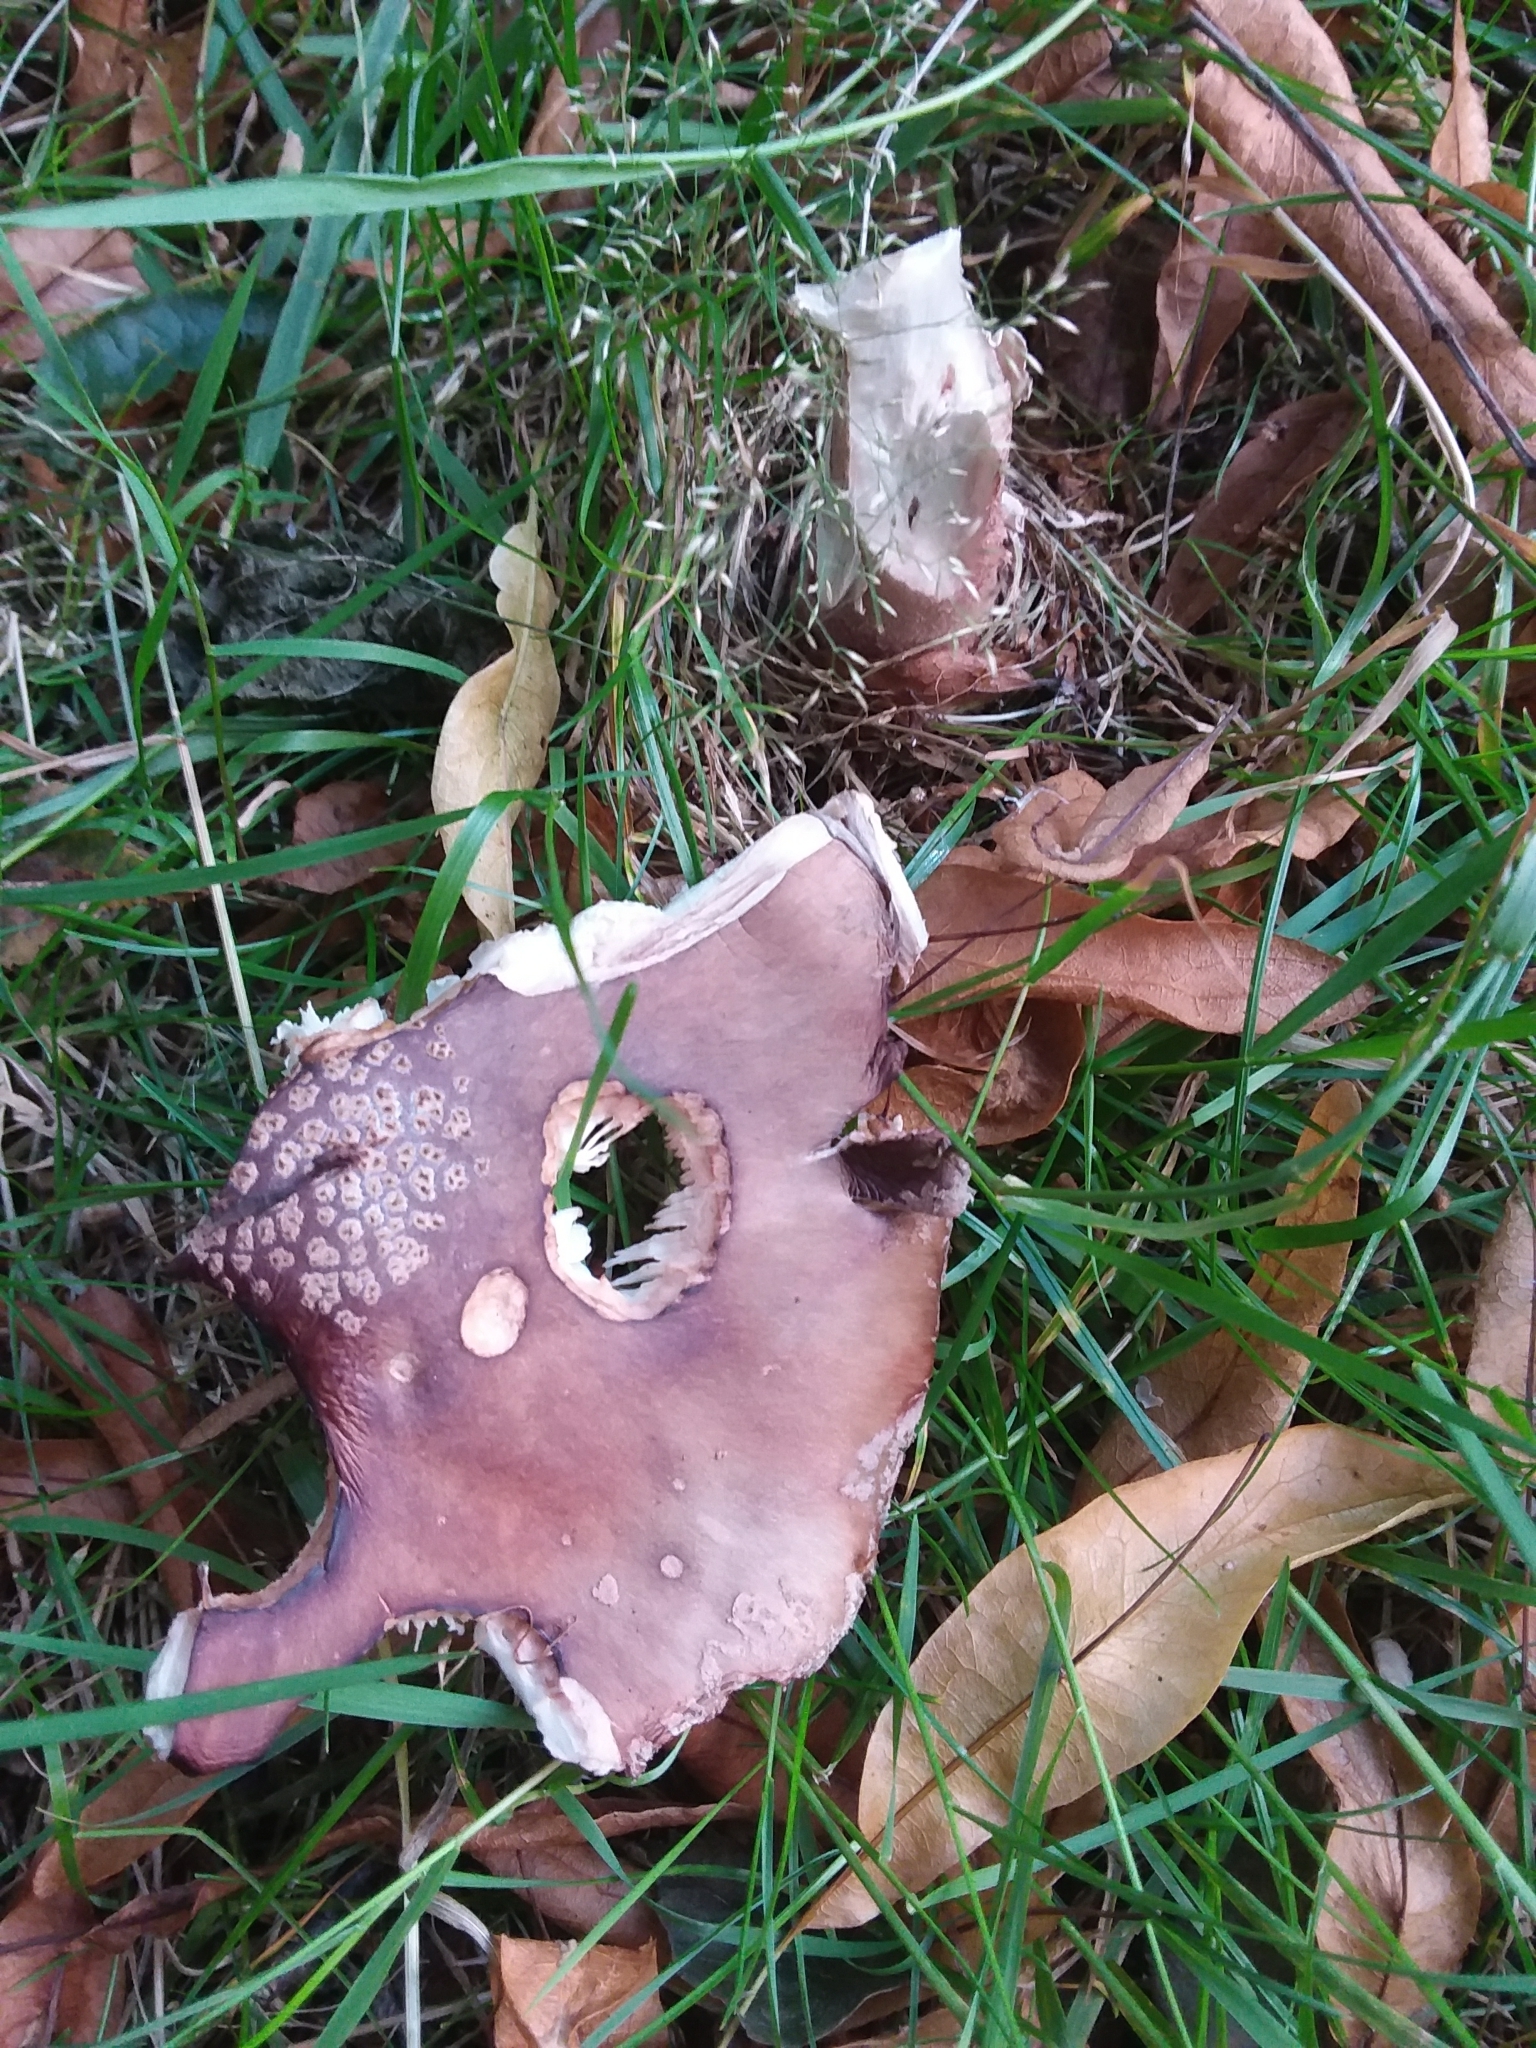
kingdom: Fungi
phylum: Basidiomycota
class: Agaricomycetes
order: Agaricales
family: Amanitaceae
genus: Amanita
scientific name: Amanita rubescens
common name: Blusher
